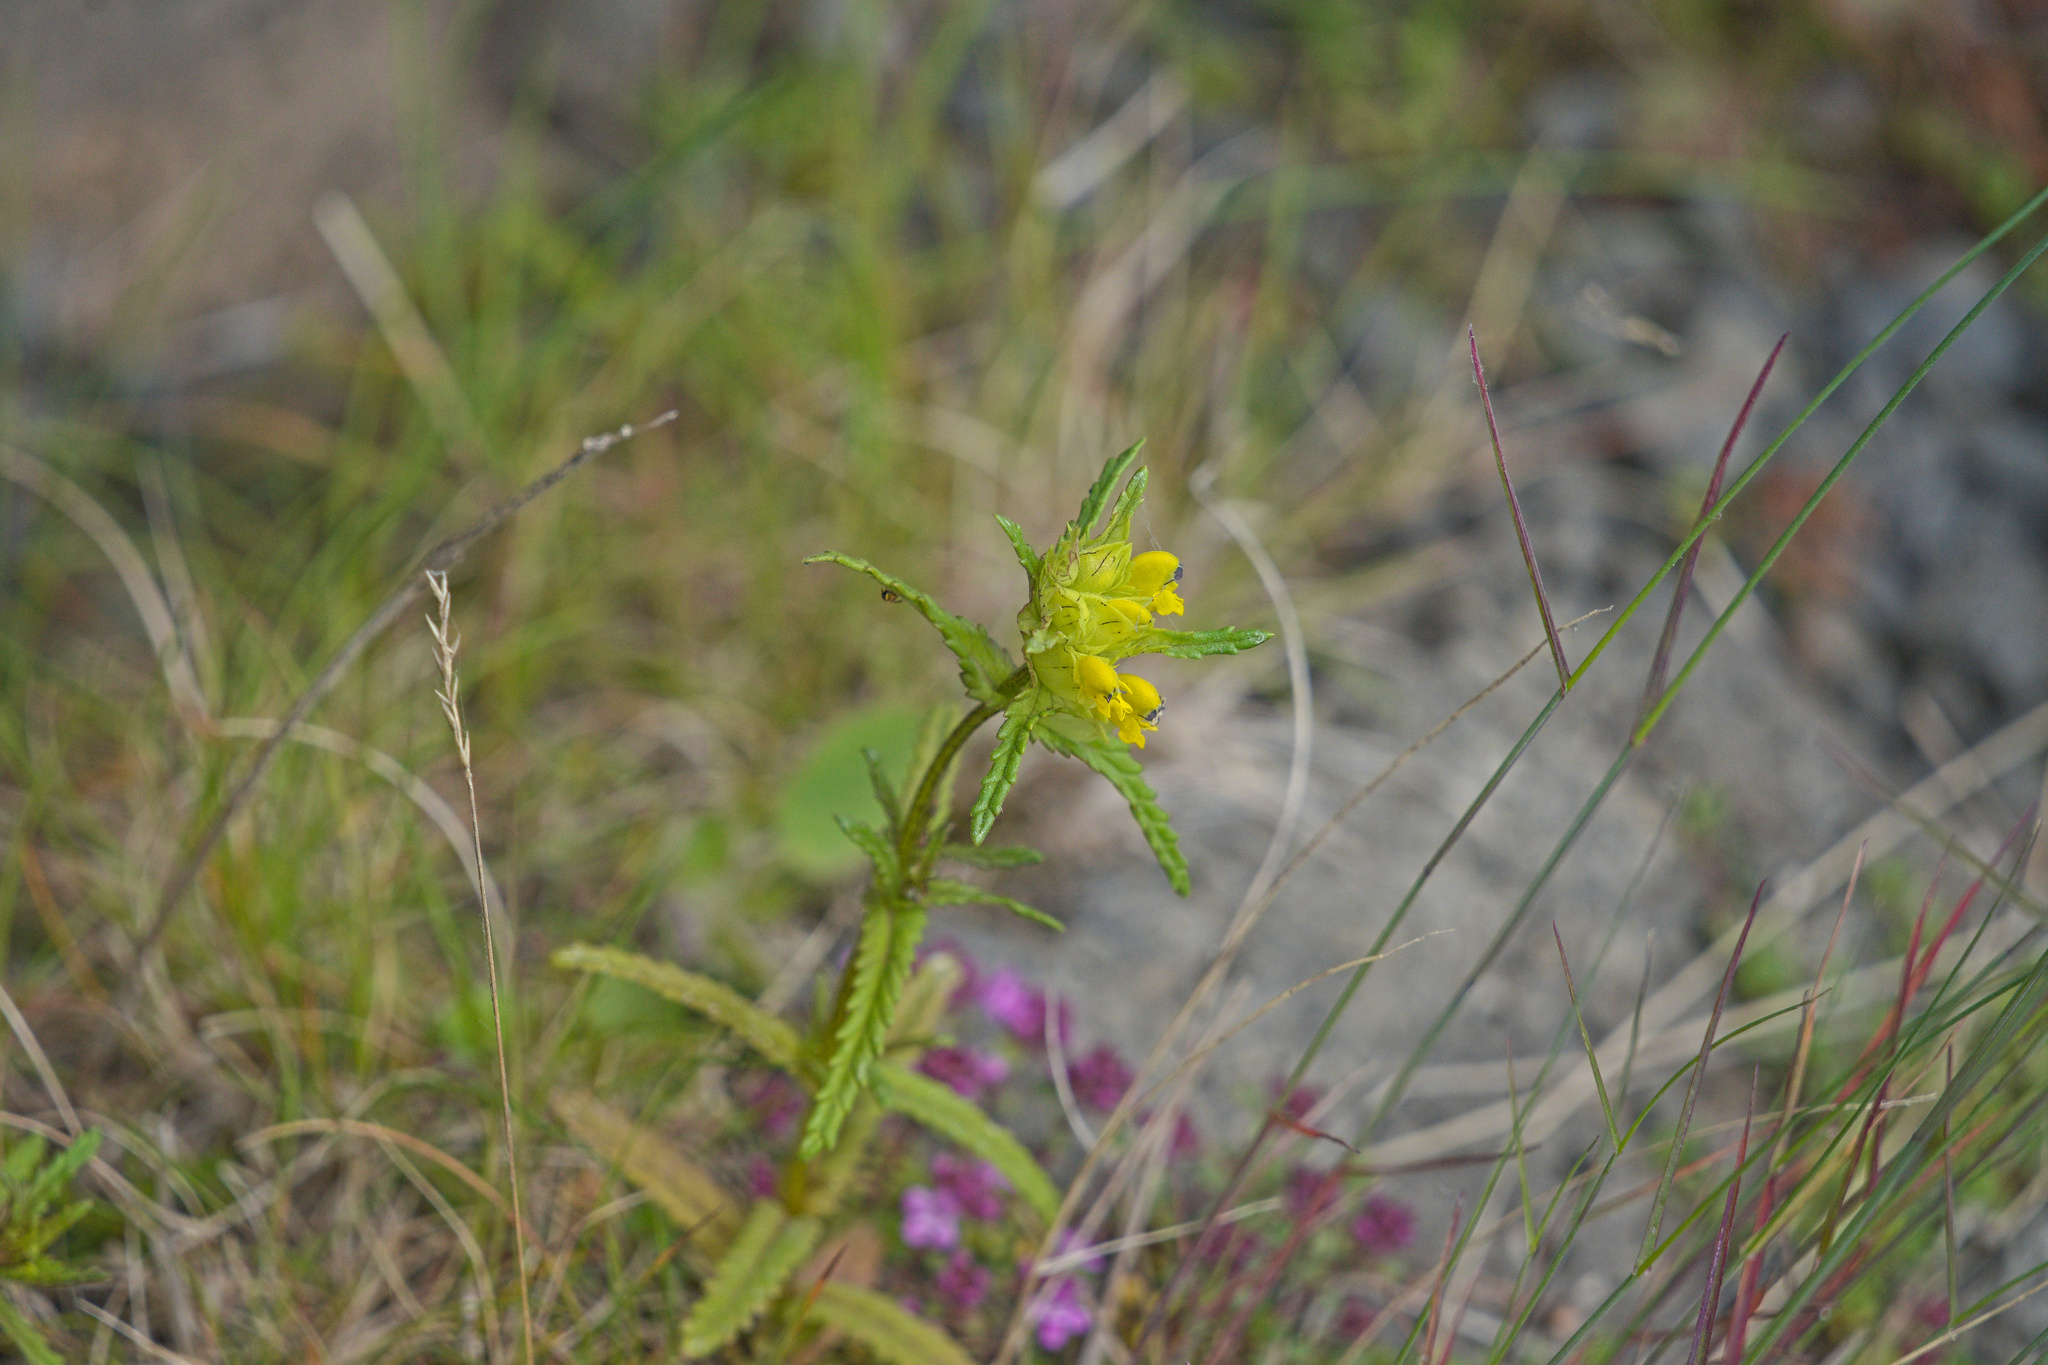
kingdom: Plantae
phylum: Tracheophyta
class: Magnoliopsida
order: Lamiales
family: Orobanchaceae
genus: Rhinanthus
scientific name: Rhinanthus minor
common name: Yellow-rattle
